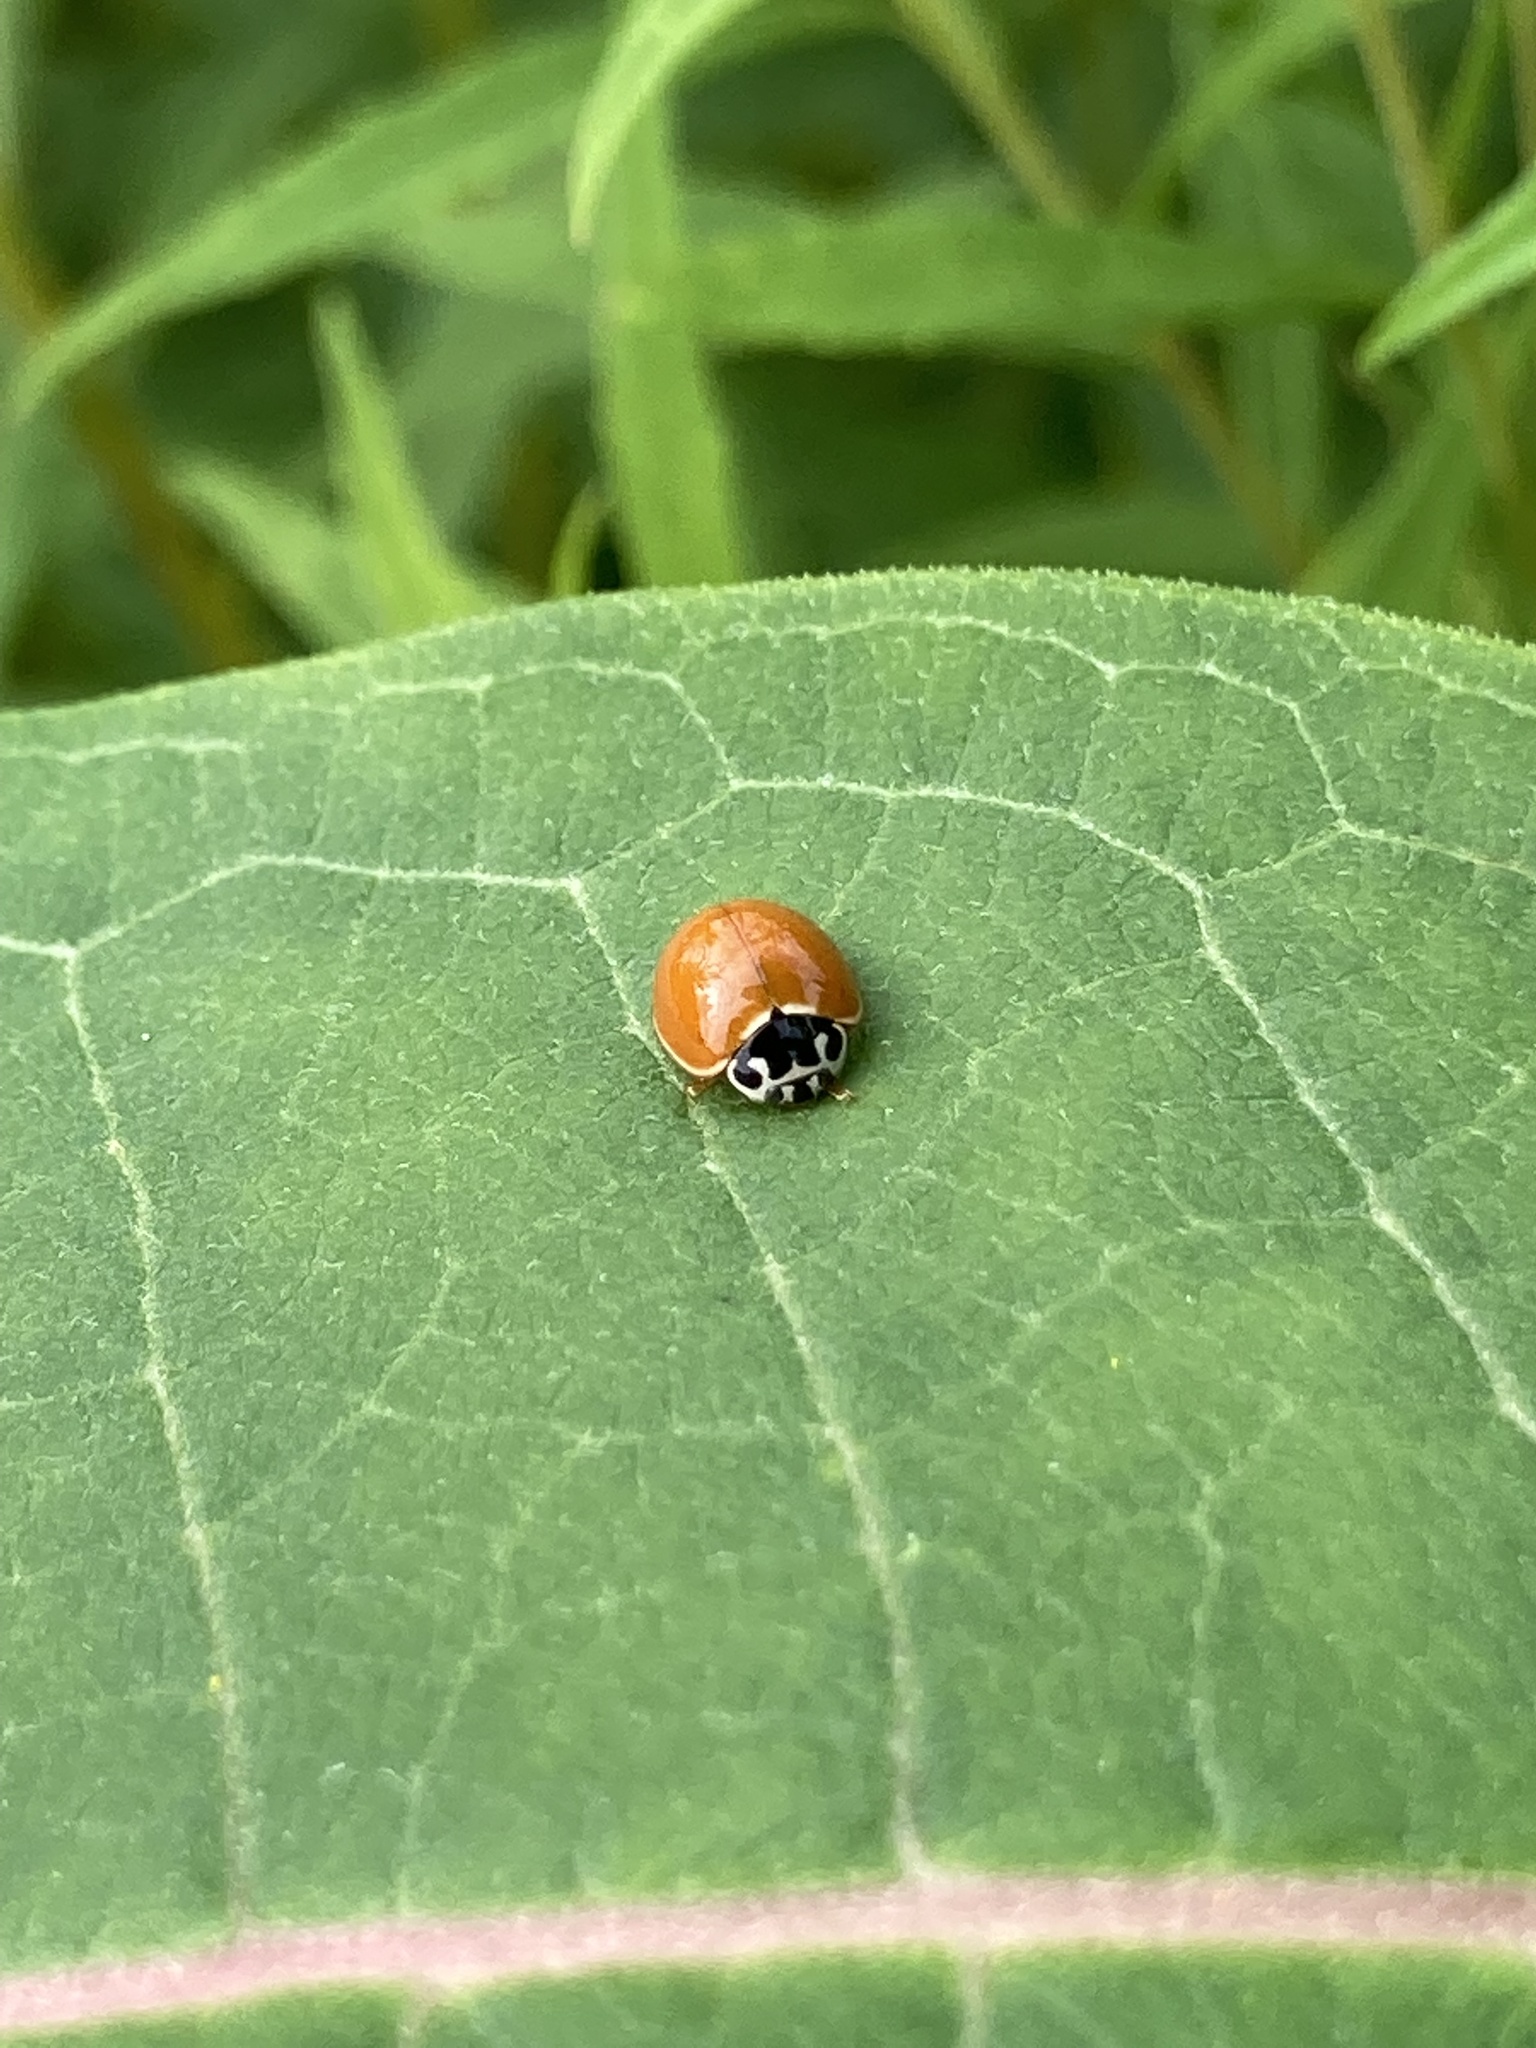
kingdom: Animalia
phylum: Arthropoda
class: Insecta
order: Coleoptera
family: Coccinellidae
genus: Cycloneda
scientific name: Cycloneda munda
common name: Polished lady beetle
